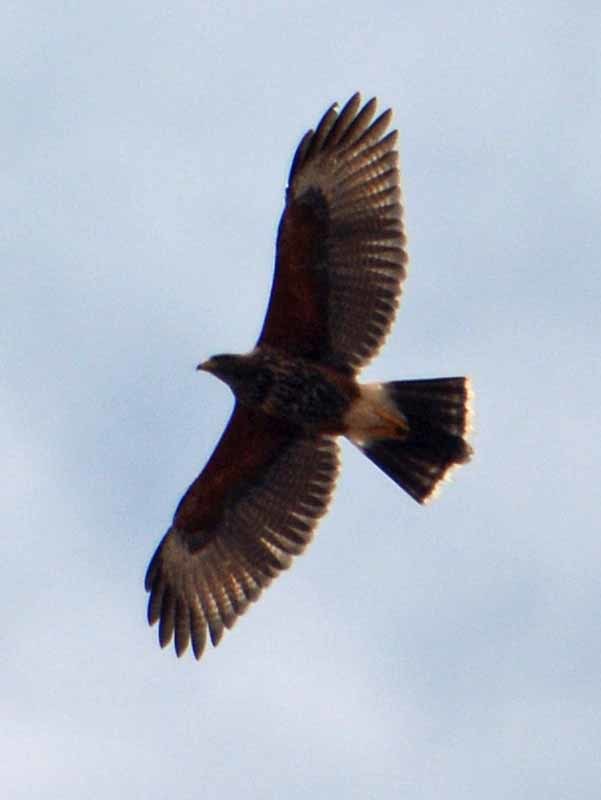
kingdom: Animalia
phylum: Chordata
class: Aves
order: Accipitriformes
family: Accipitridae
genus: Parabuteo
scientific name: Parabuteo unicinctus
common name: Harris's hawk
